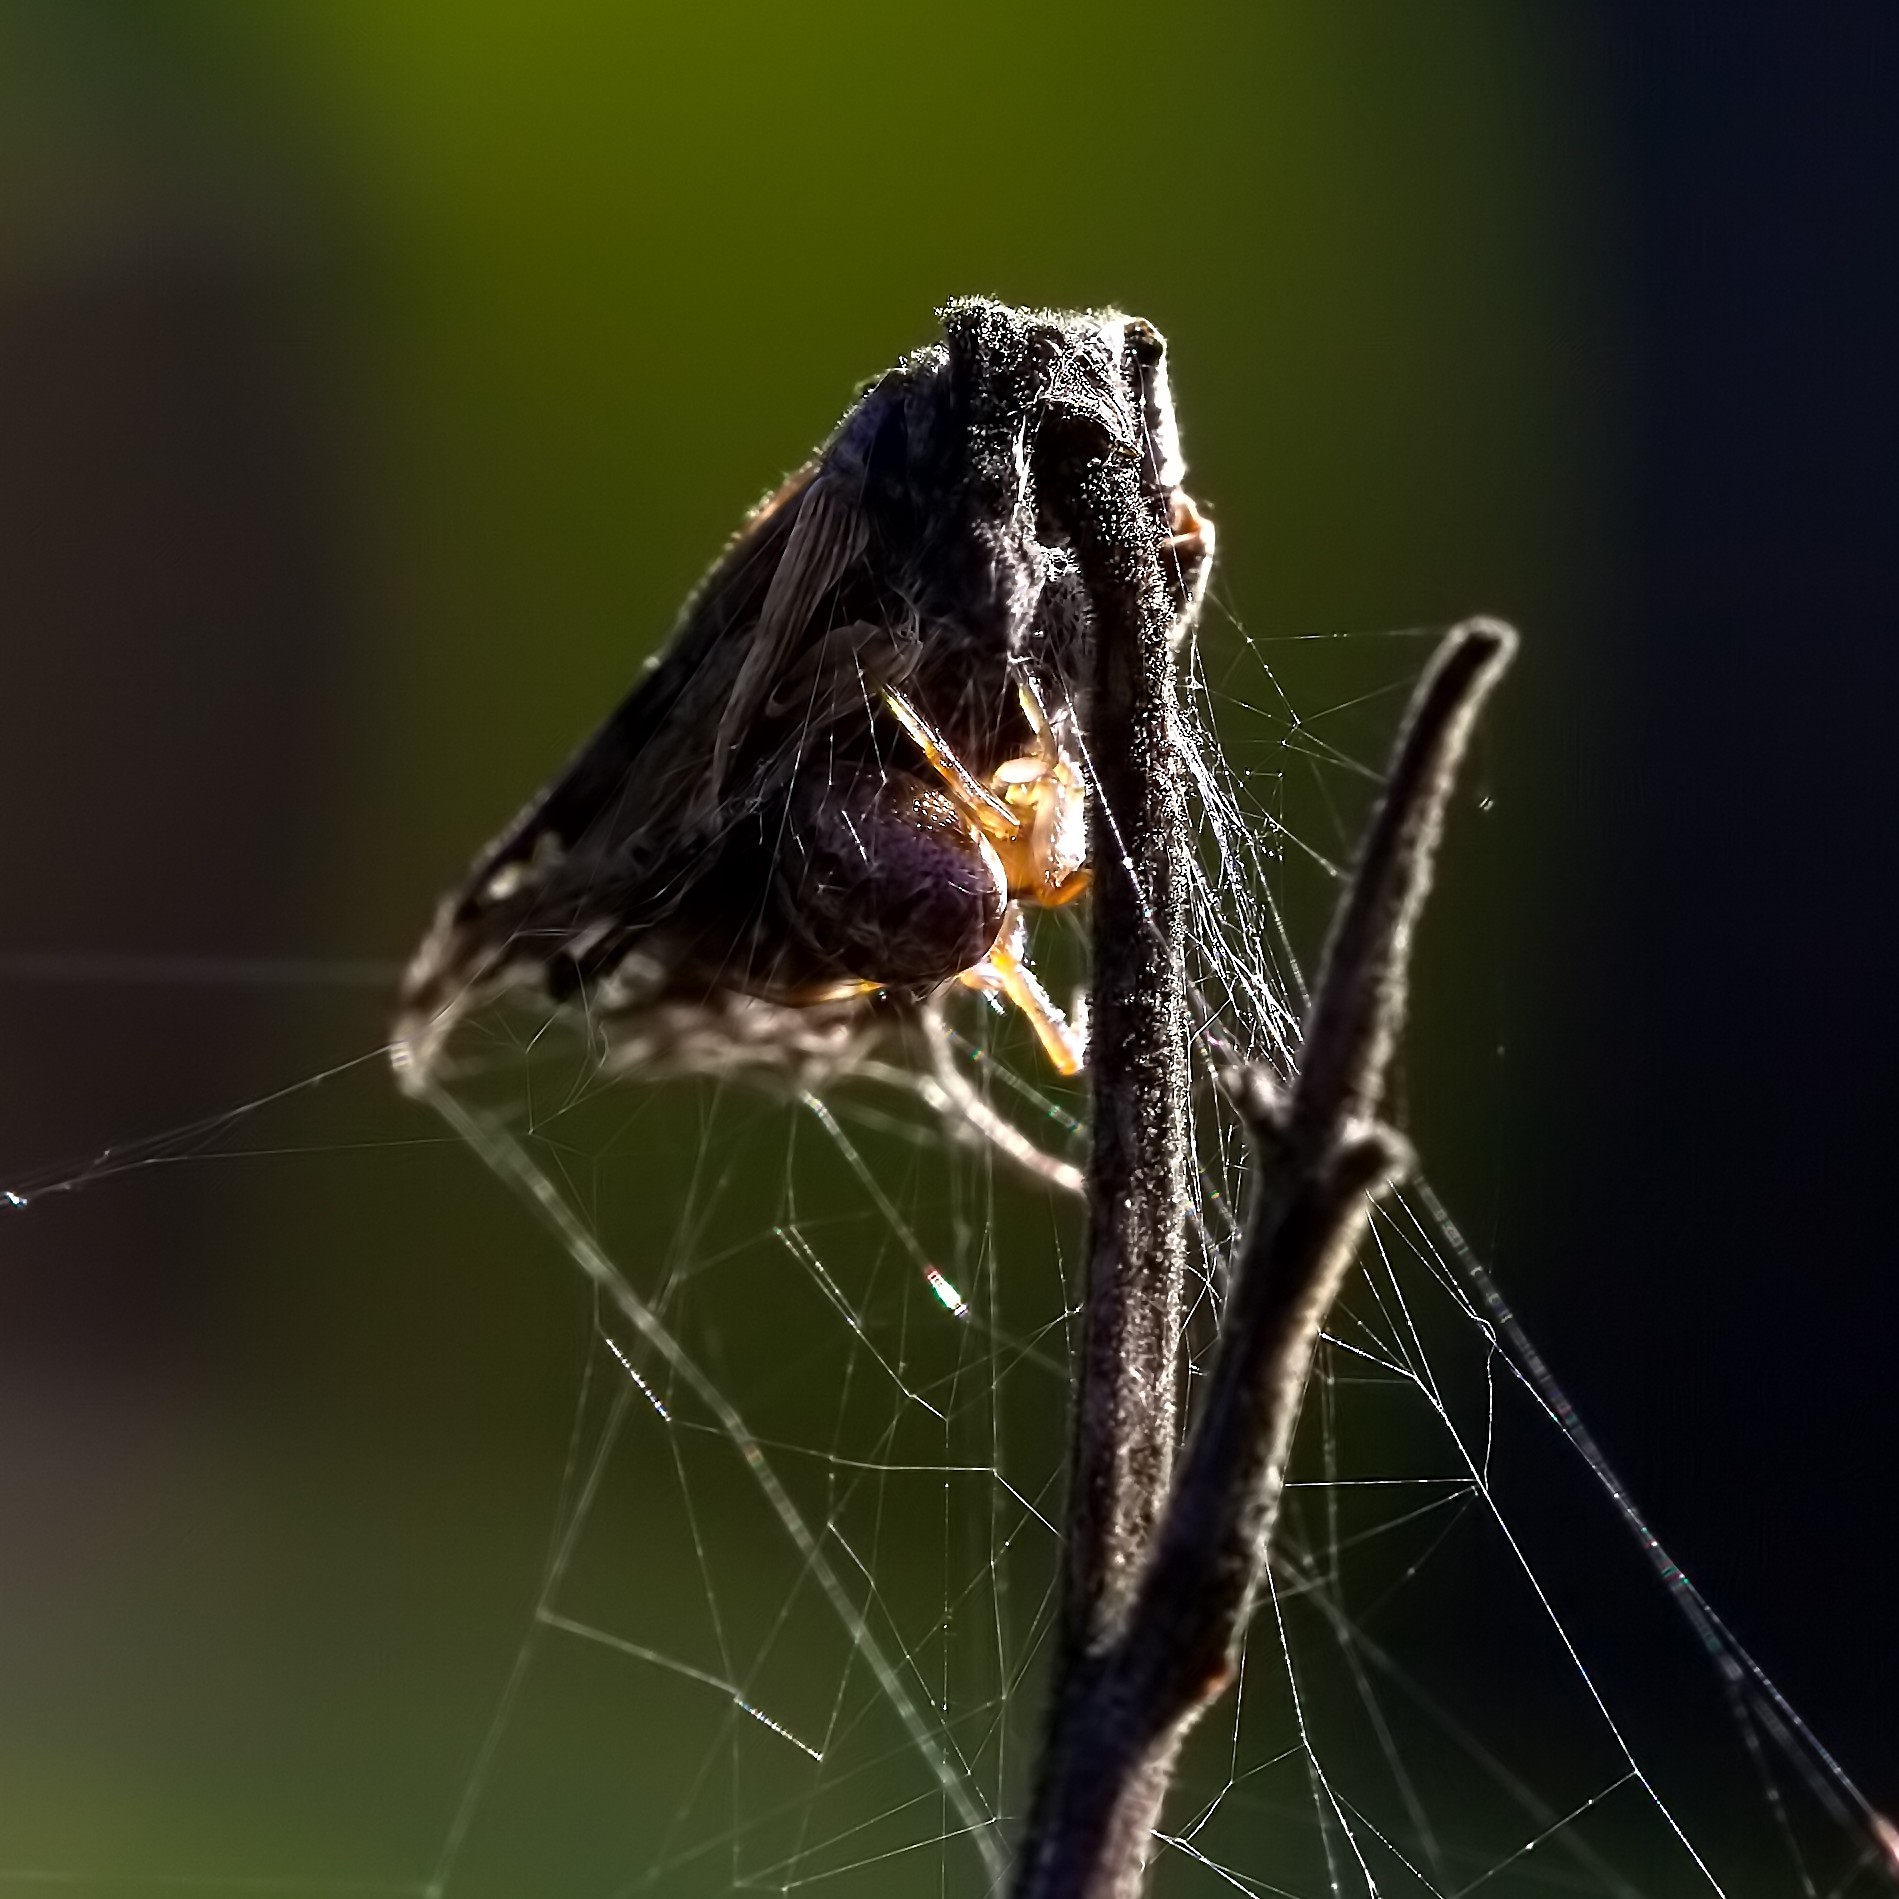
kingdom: Animalia
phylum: Arthropoda
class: Arachnida
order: Araneae
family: Araneidae
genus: Neoscona
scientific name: Neoscona arabesca
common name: Orb weavers
